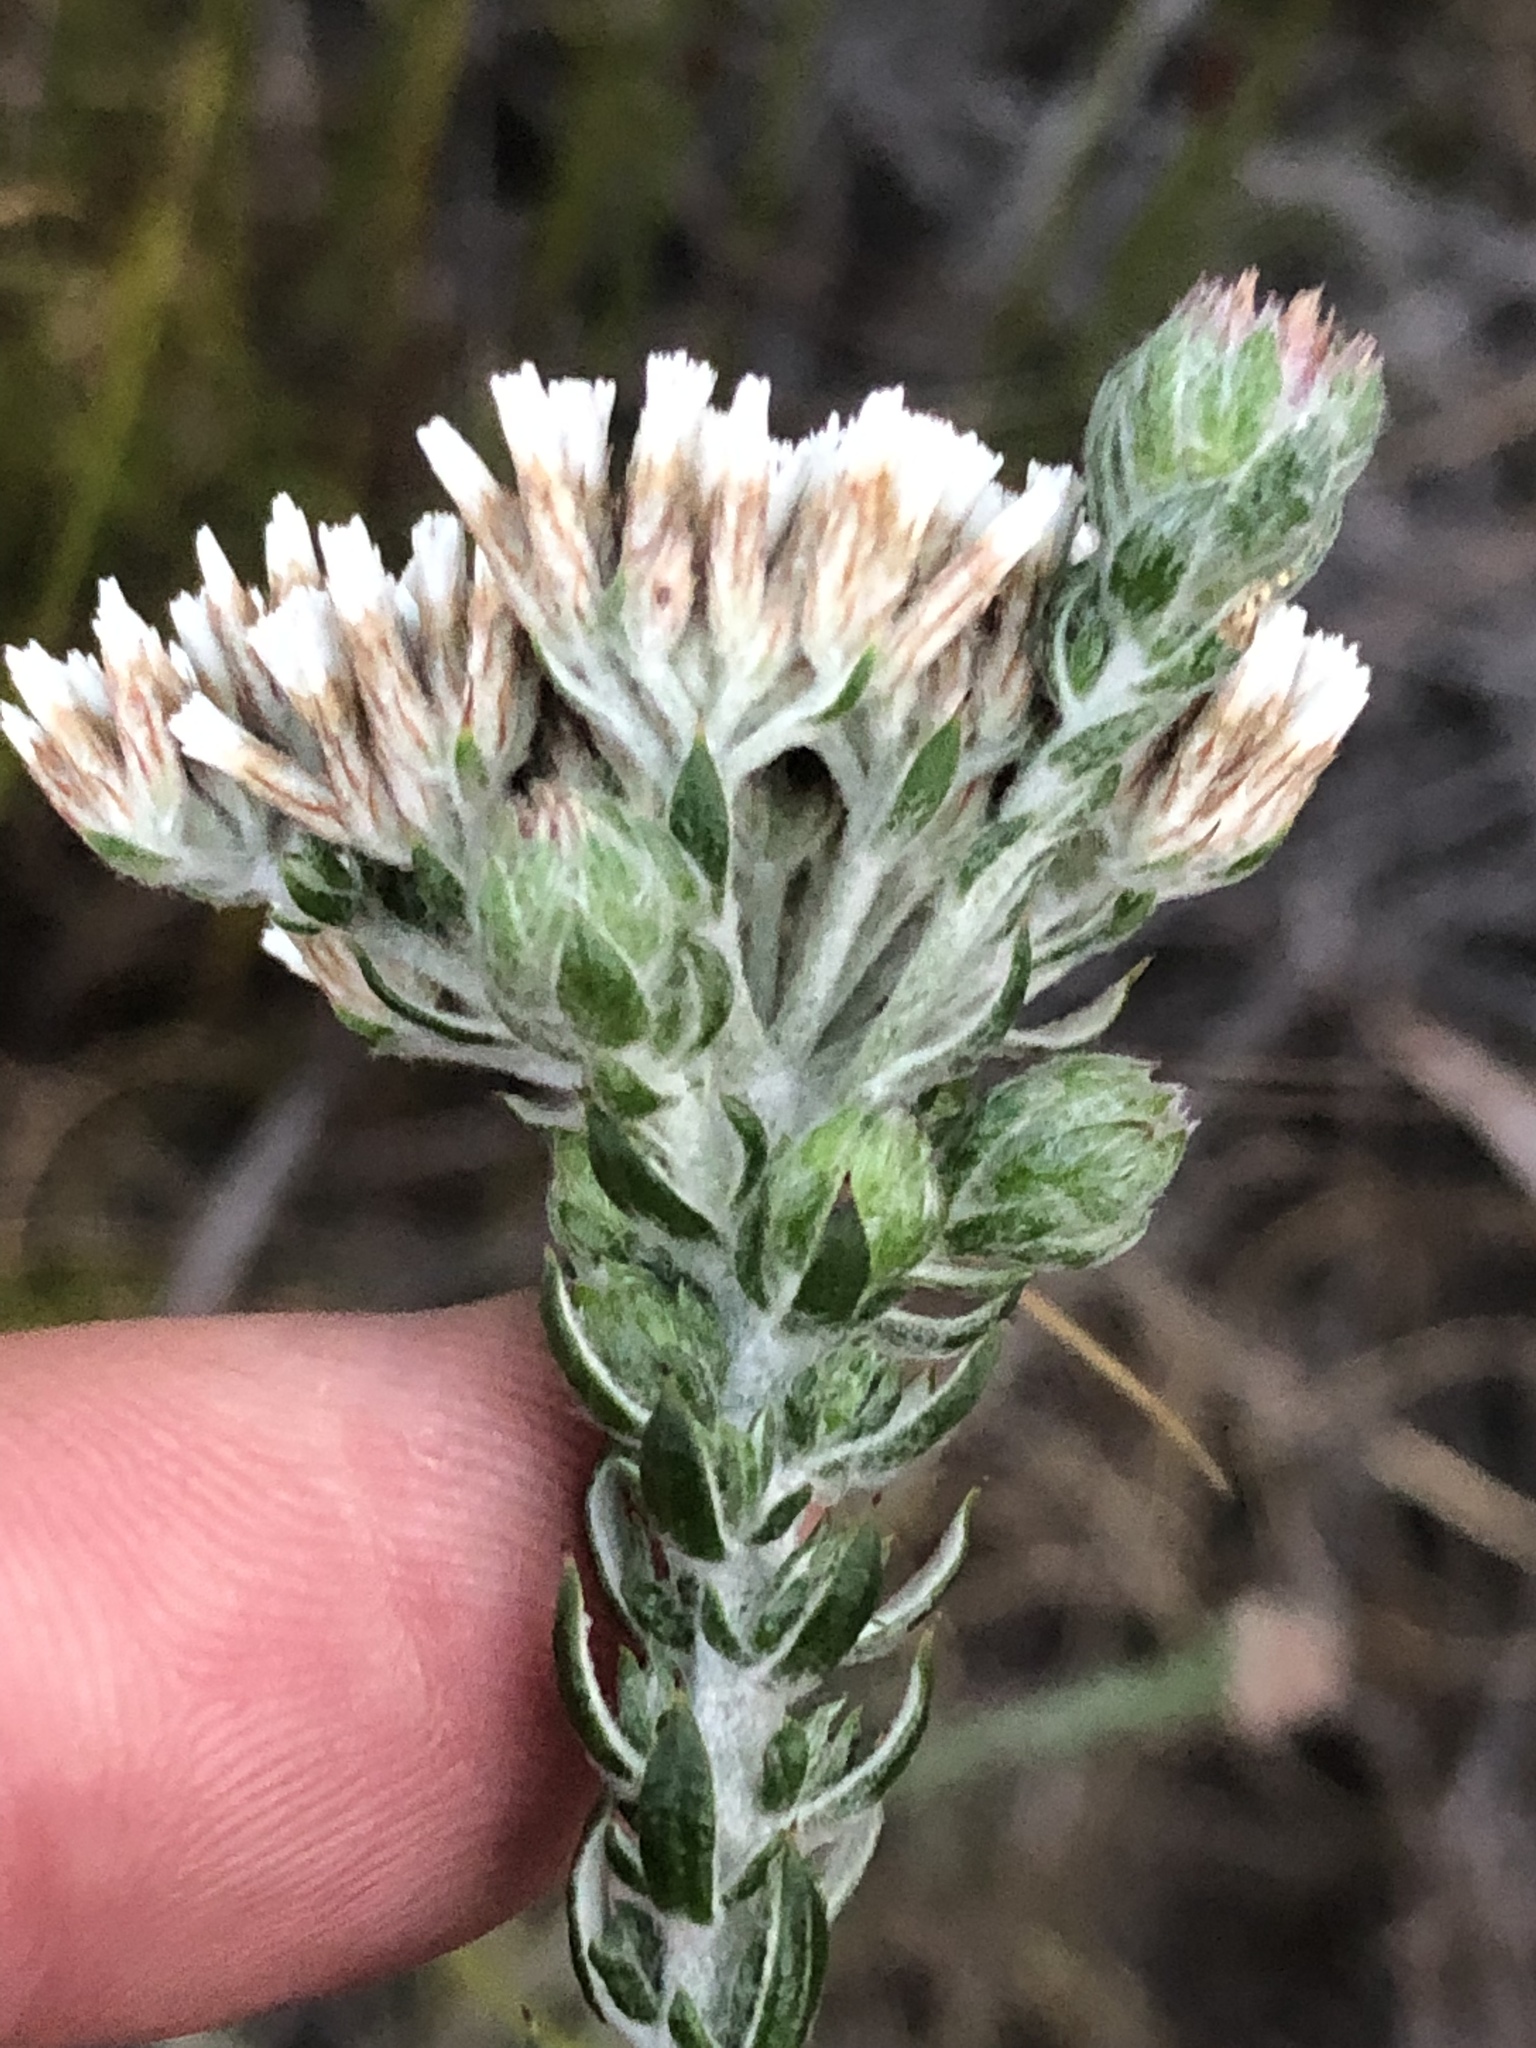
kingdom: Plantae
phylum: Tracheophyta
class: Magnoliopsida
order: Asterales
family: Asteraceae
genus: Metalasia
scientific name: Metalasia pungens
